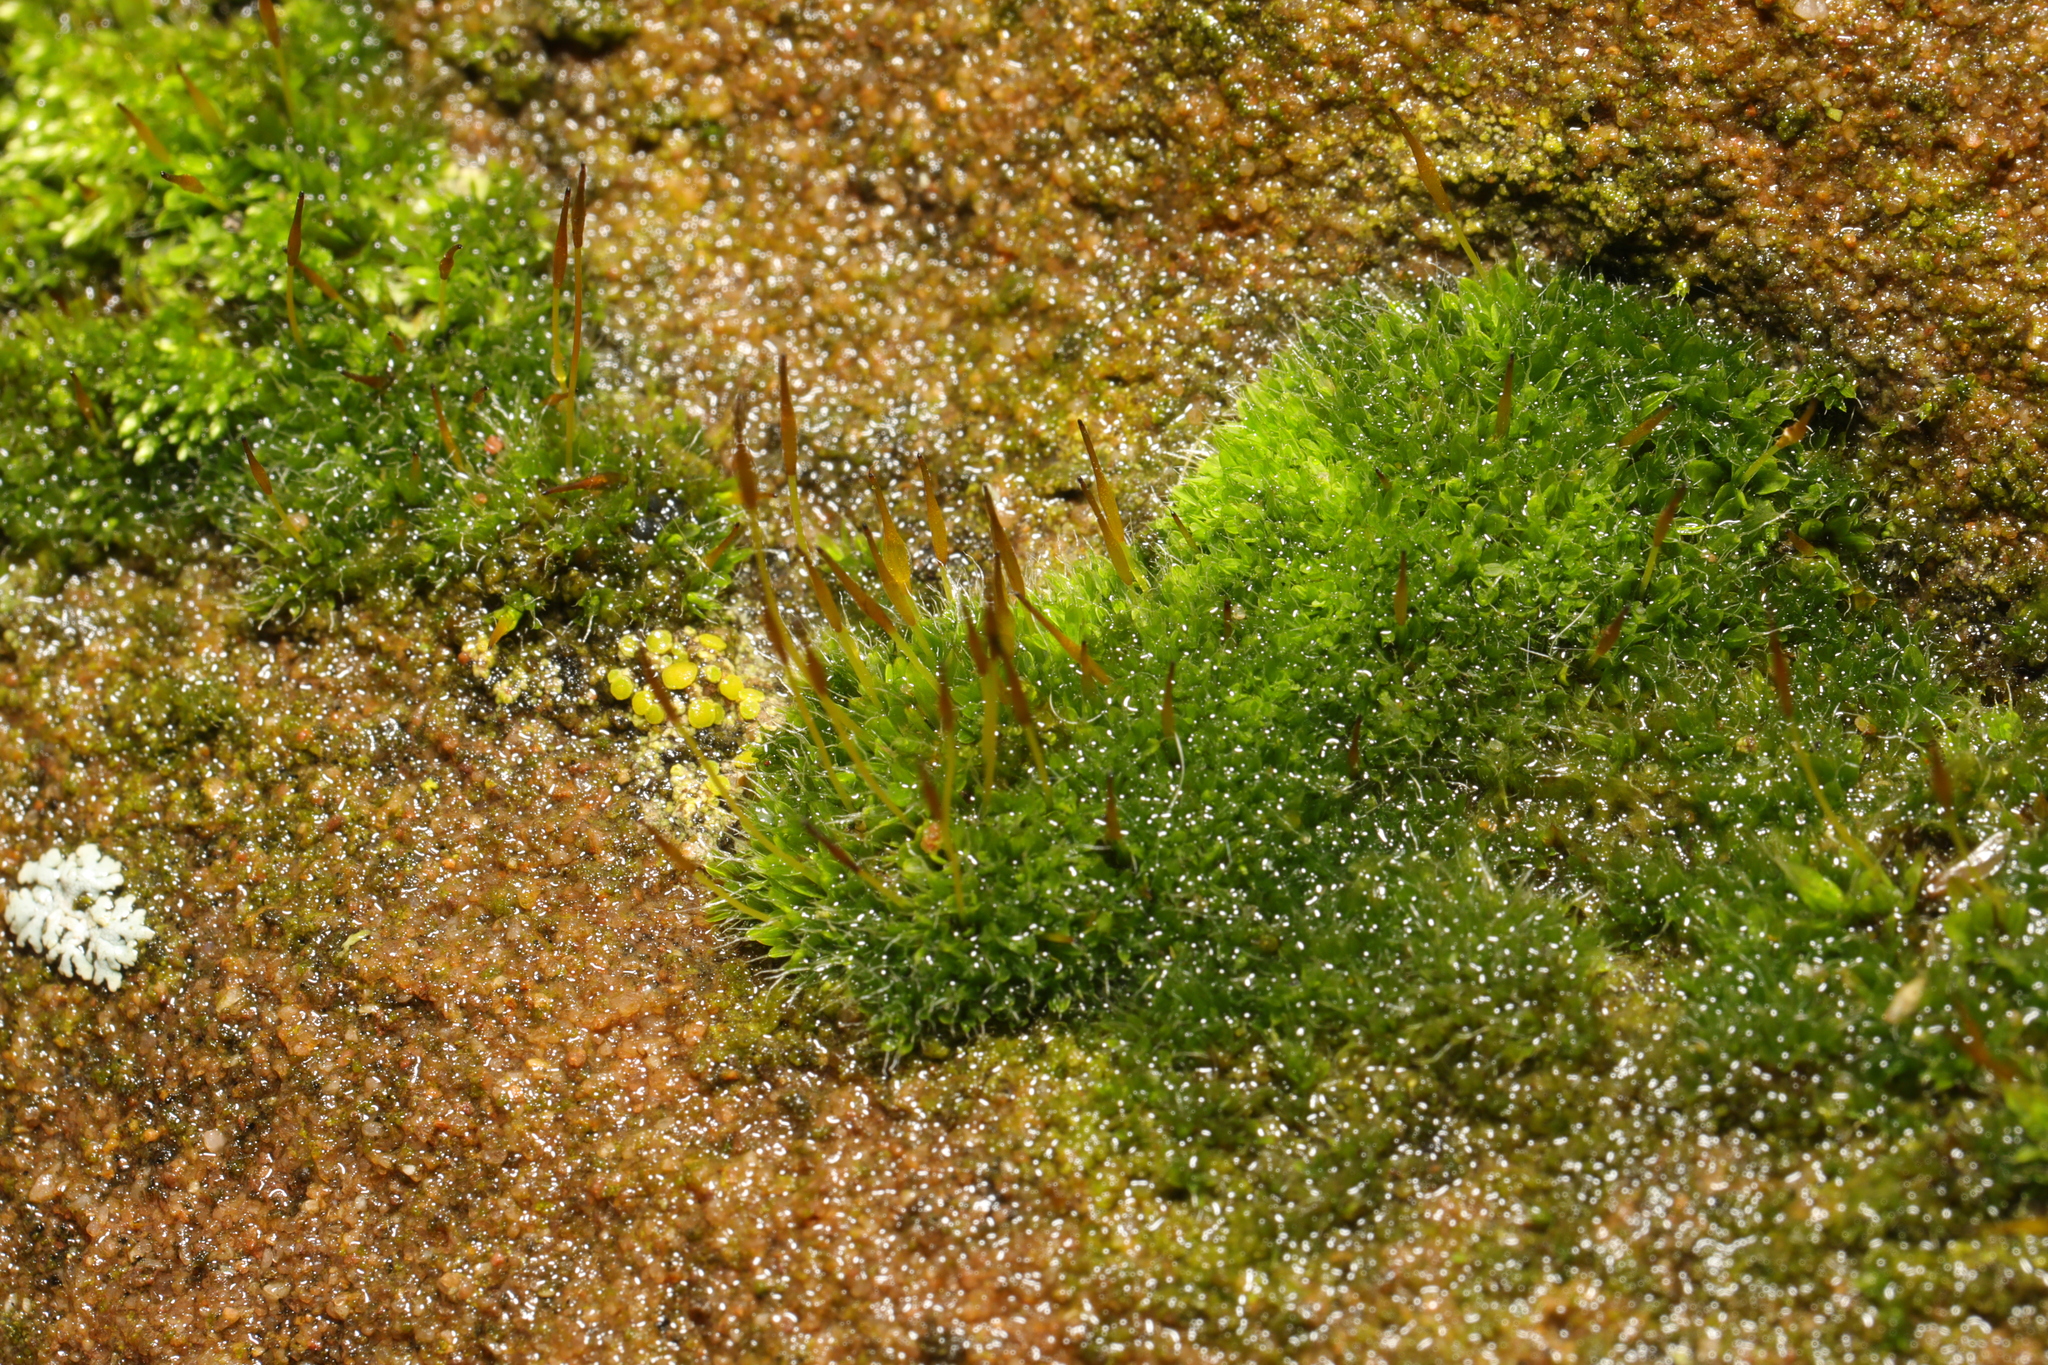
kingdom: Plantae
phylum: Bryophyta
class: Bryopsida
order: Pottiales
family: Pottiaceae
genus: Tortula
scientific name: Tortula muralis
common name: Wall screw-moss
